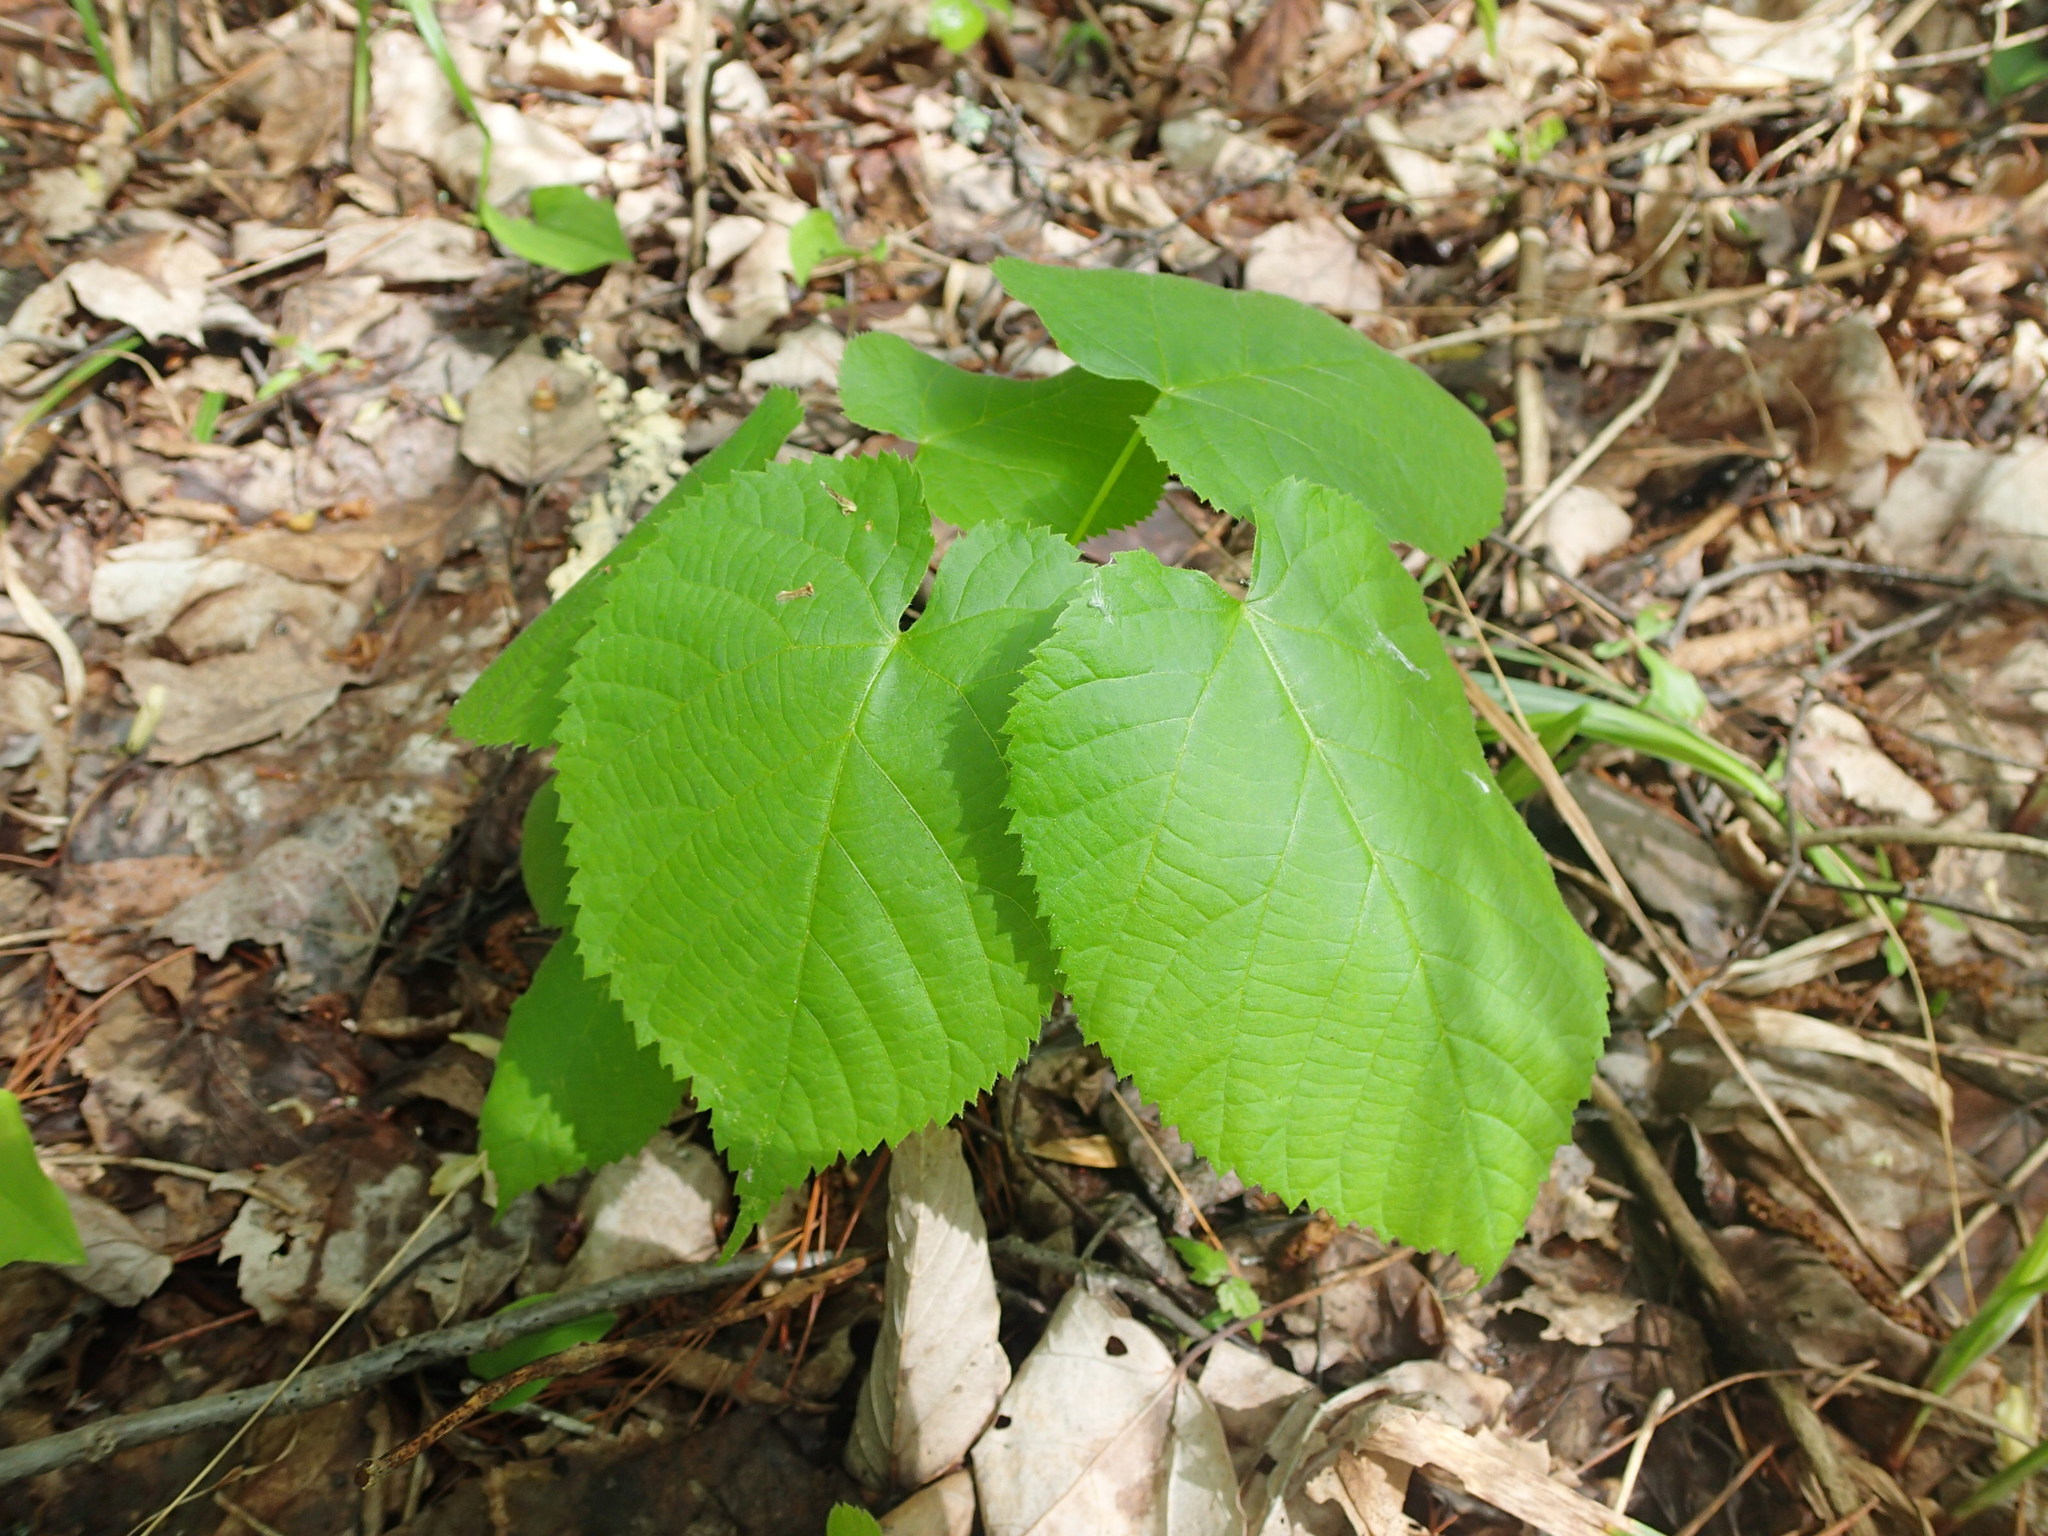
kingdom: Plantae
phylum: Tracheophyta
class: Magnoliopsida
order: Malvales
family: Malvaceae
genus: Tilia
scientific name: Tilia americana
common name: Basswood
